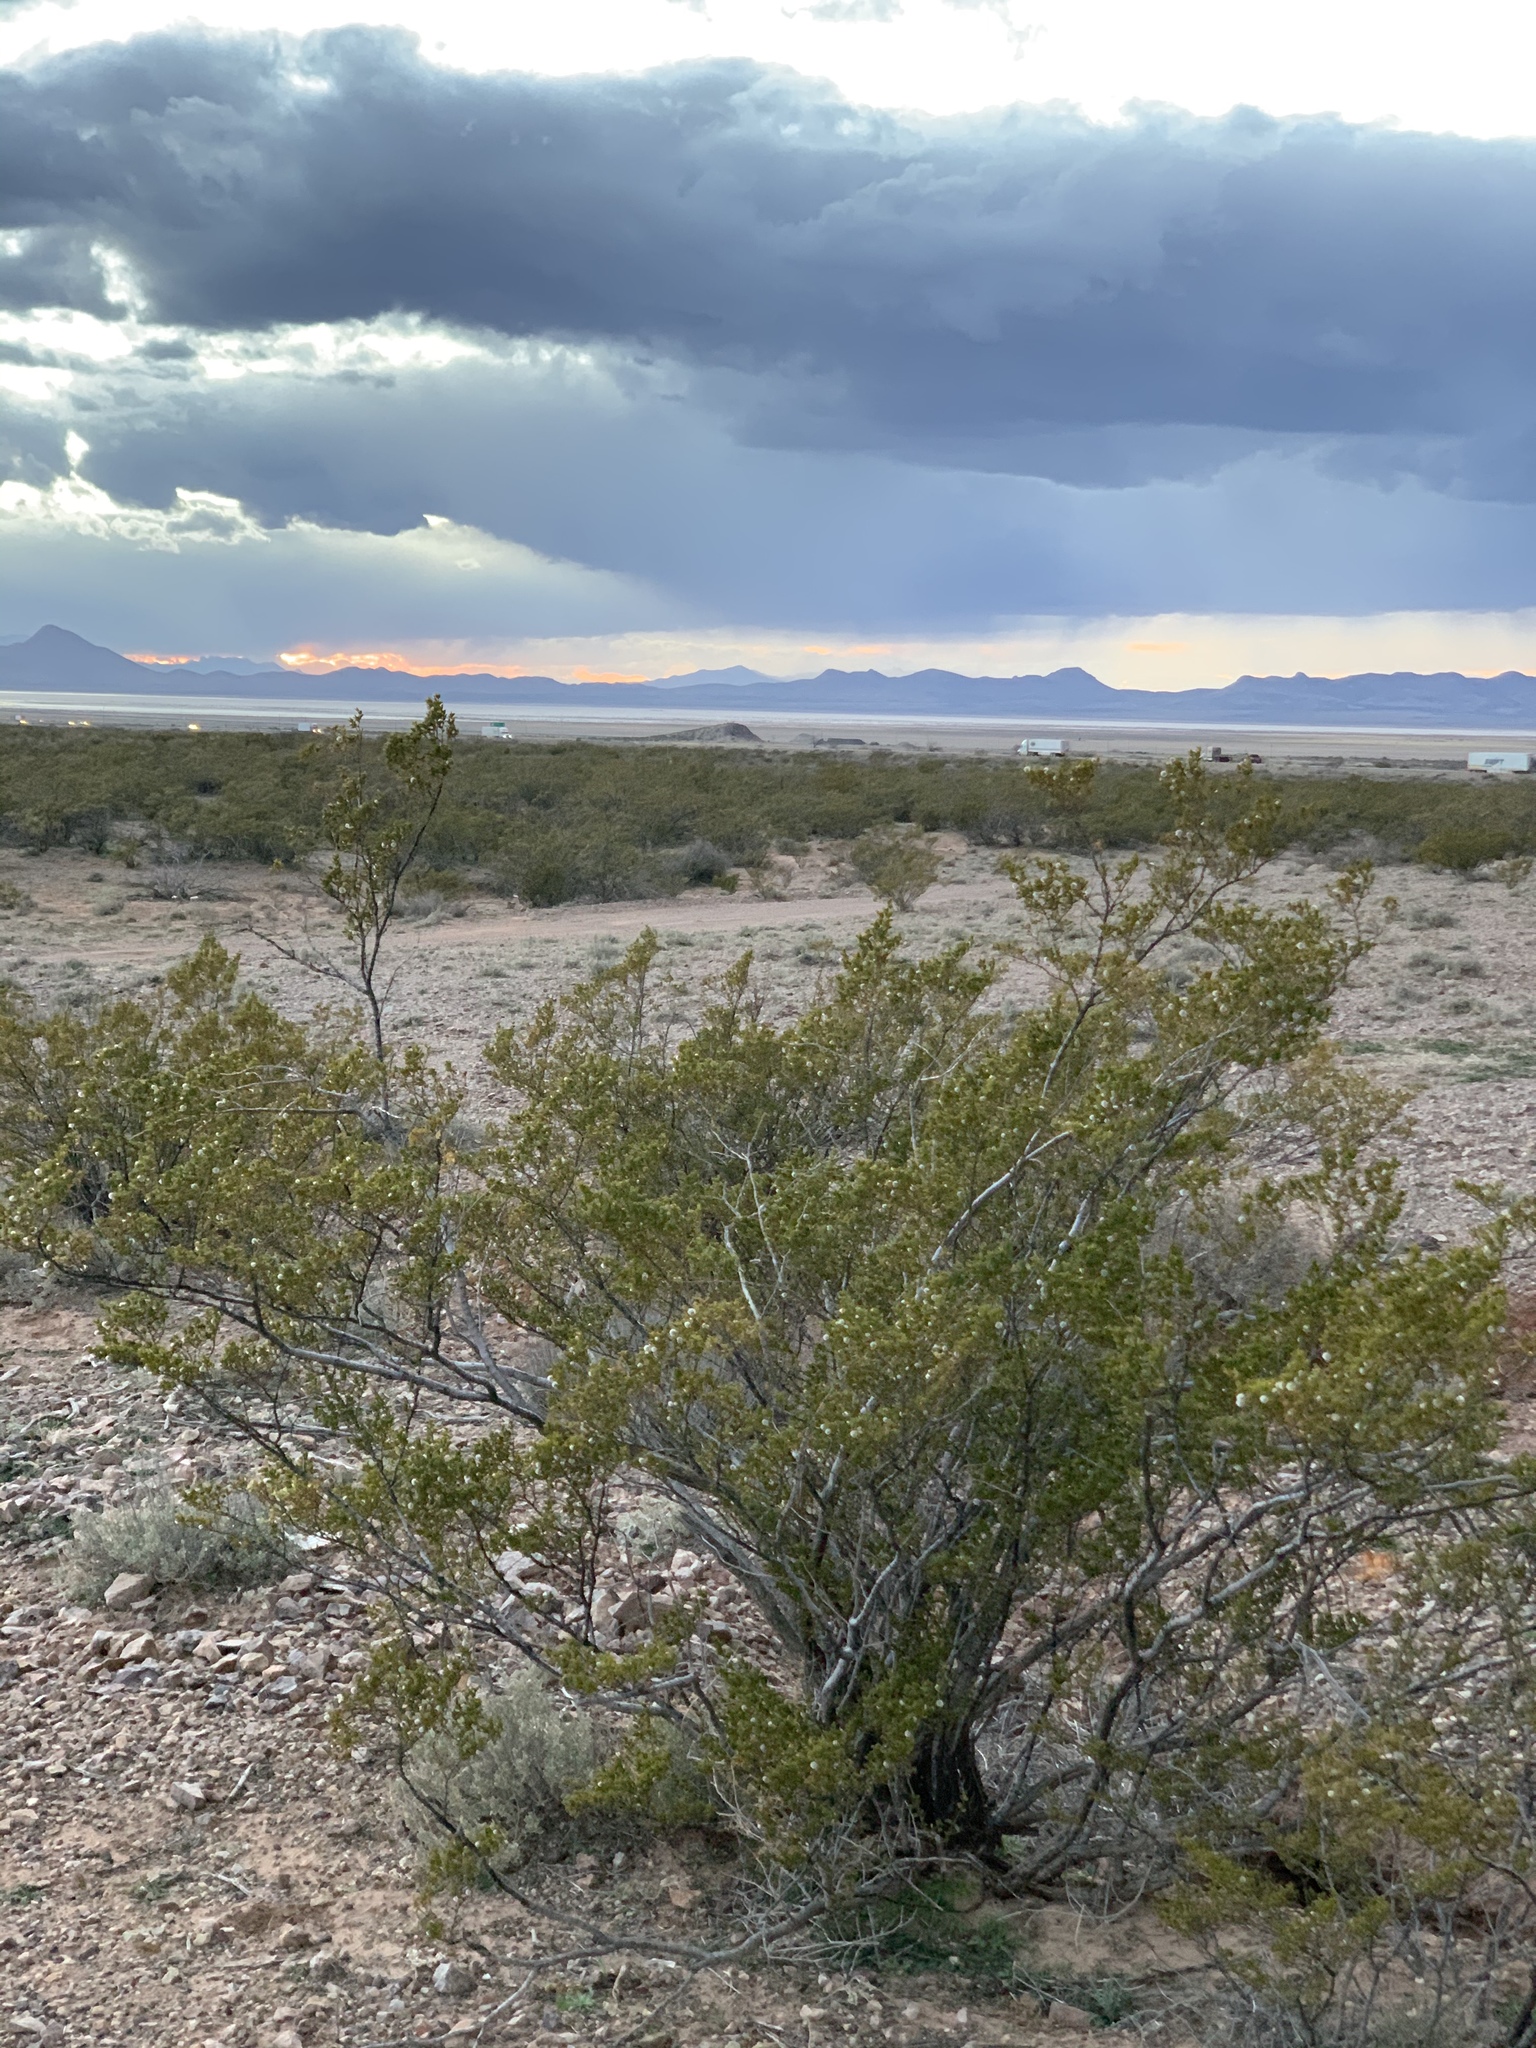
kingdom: Plantae
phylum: Tracheophyta
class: Magnoliopsida
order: Zygophyllales
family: Zygophyllaceae
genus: Larrea
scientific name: Larrea tridentata
